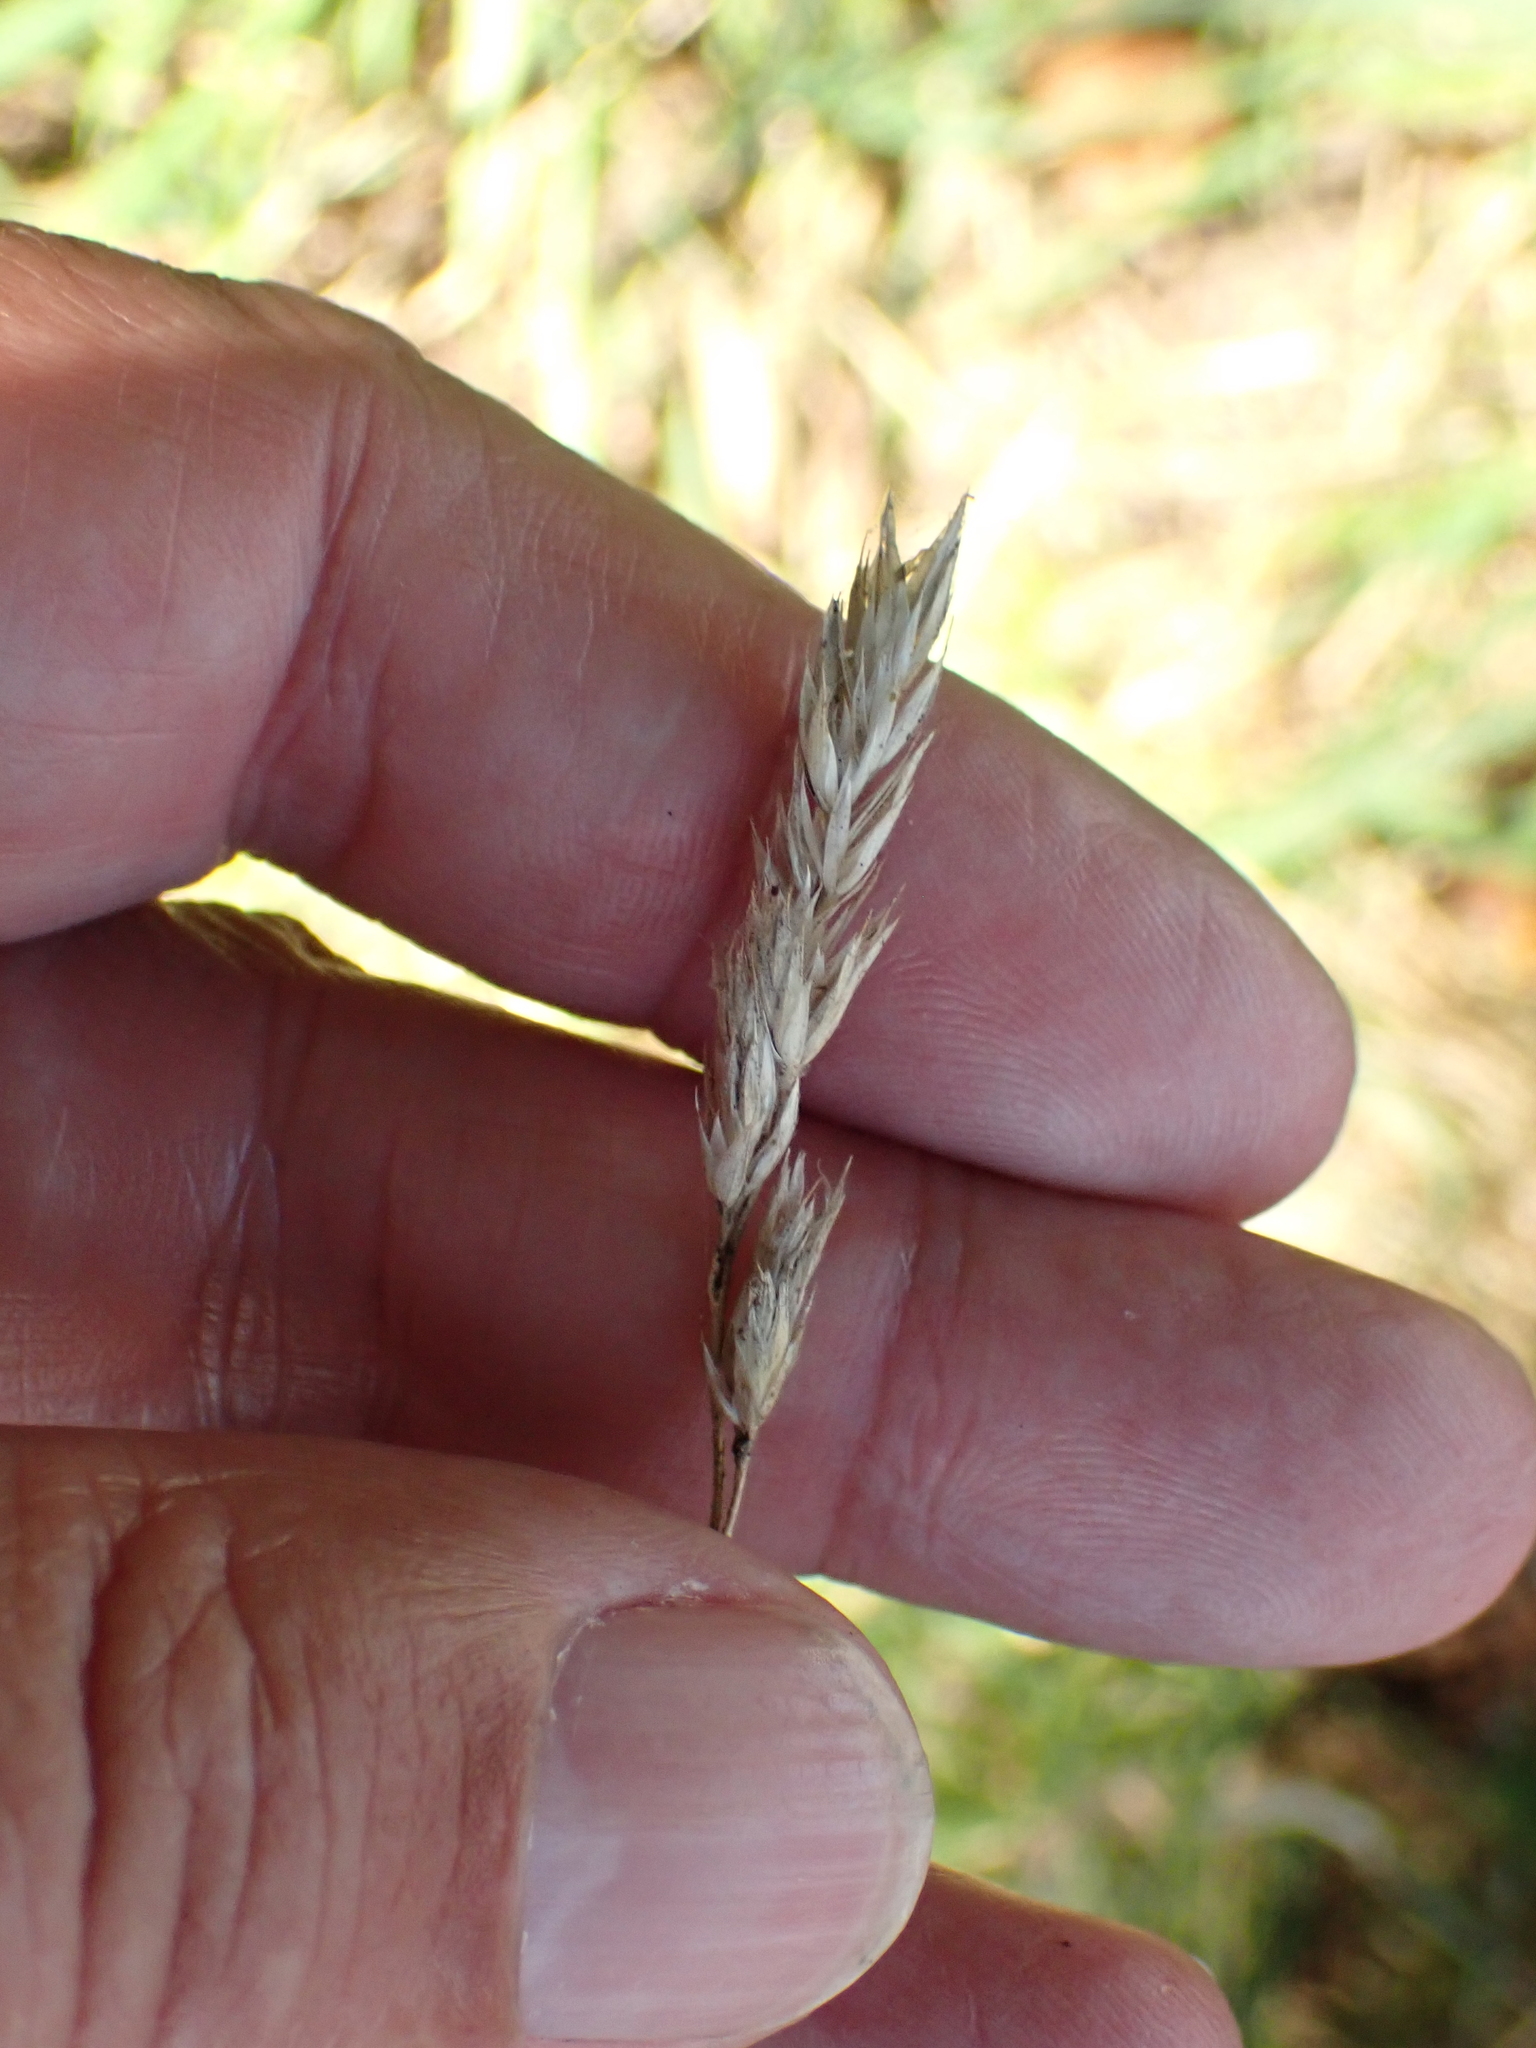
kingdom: Plantae
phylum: Tracheophyta
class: Liliopsida
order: Poales
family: Poaceae
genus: Dactylis
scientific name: Dactylis glomerata
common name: Orchardgrass
